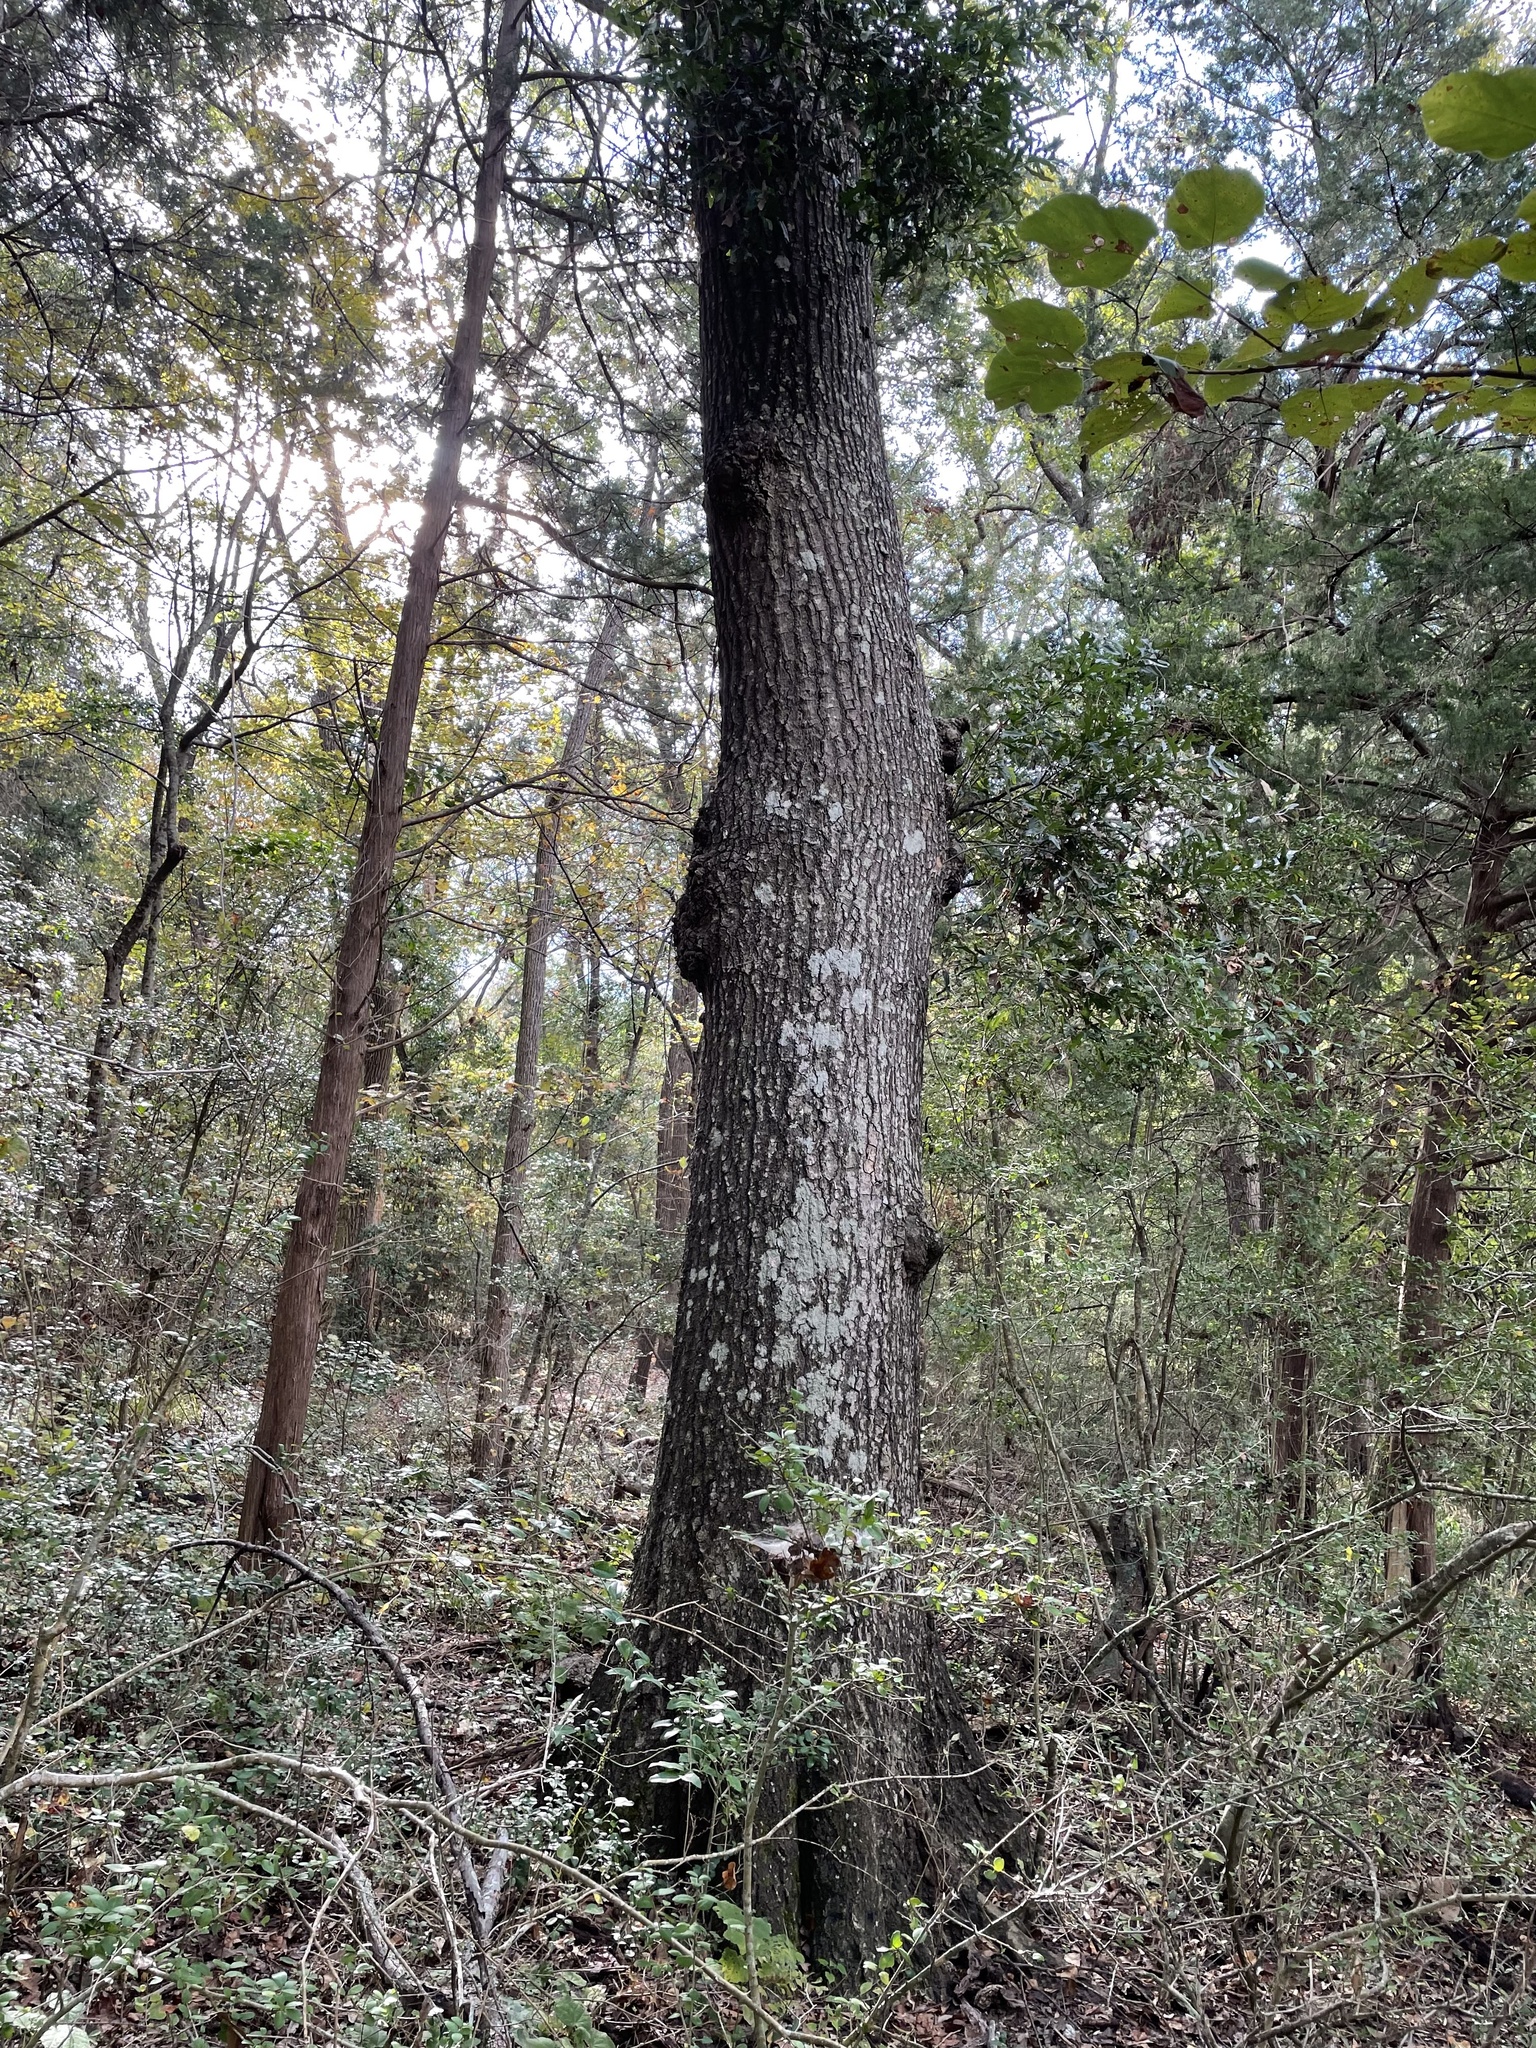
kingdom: Plantae
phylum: Tracheophyta
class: Magnoliopsida
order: Fagales
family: Fagaceae
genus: Quercus
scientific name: Quercus nigra
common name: Water oak
